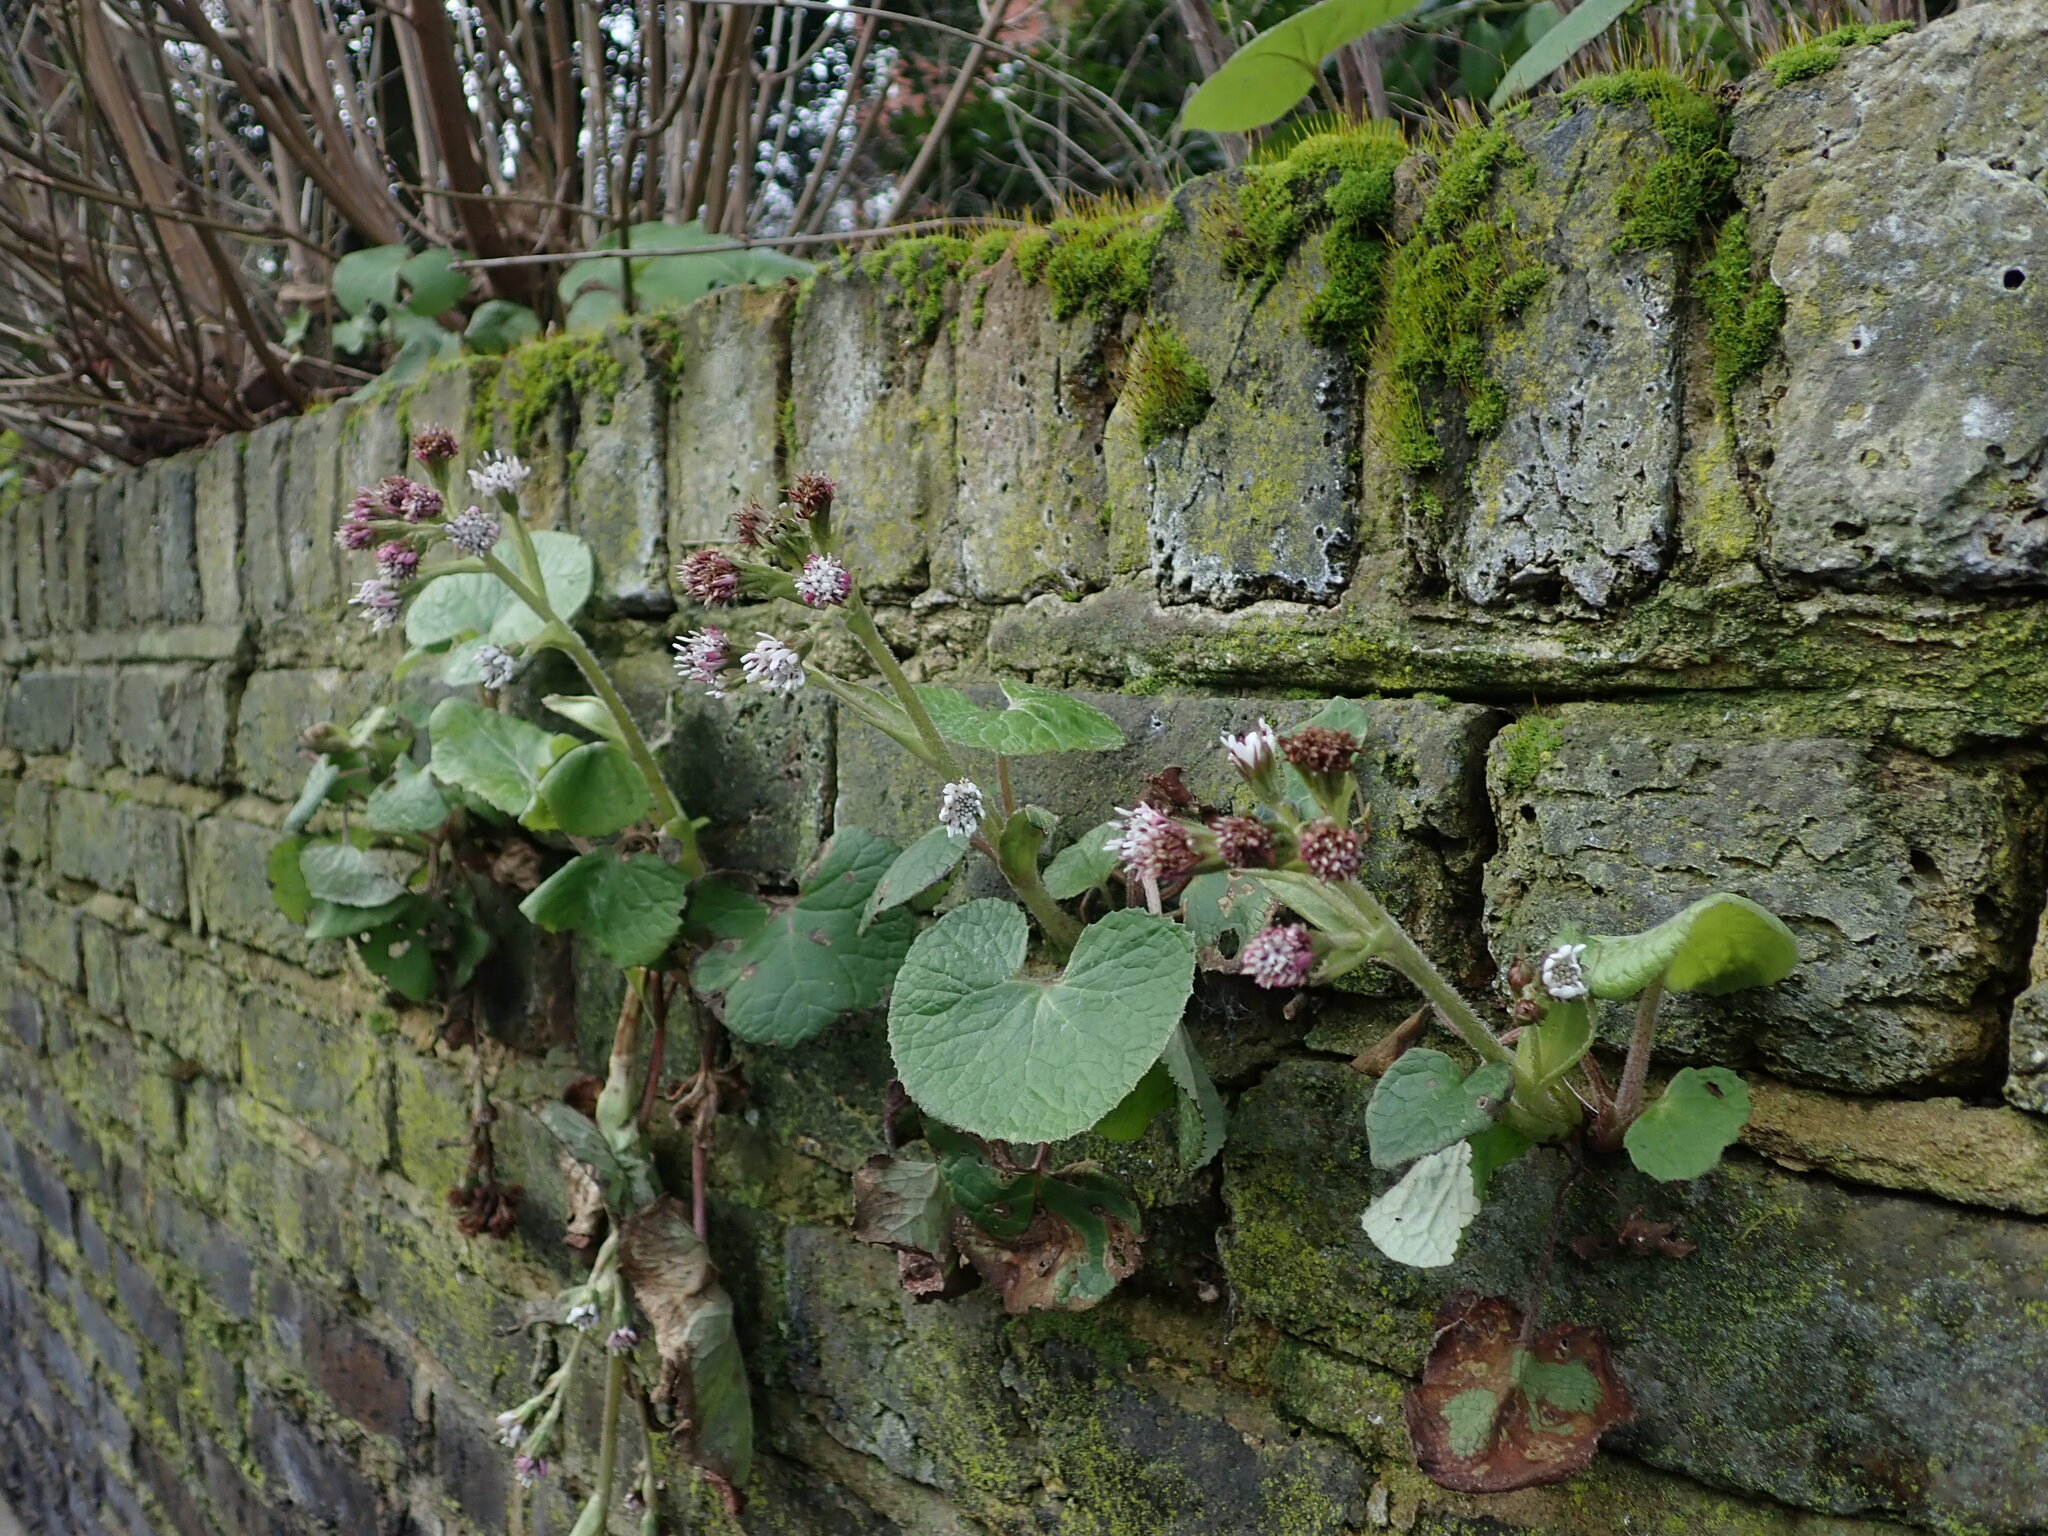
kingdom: Plantae
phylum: Tracheophyta
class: Magnoliopsida
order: Asterales
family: Asteraceae
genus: Petasites
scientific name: Petasites pyrenaicus
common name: Winter heliotrope
